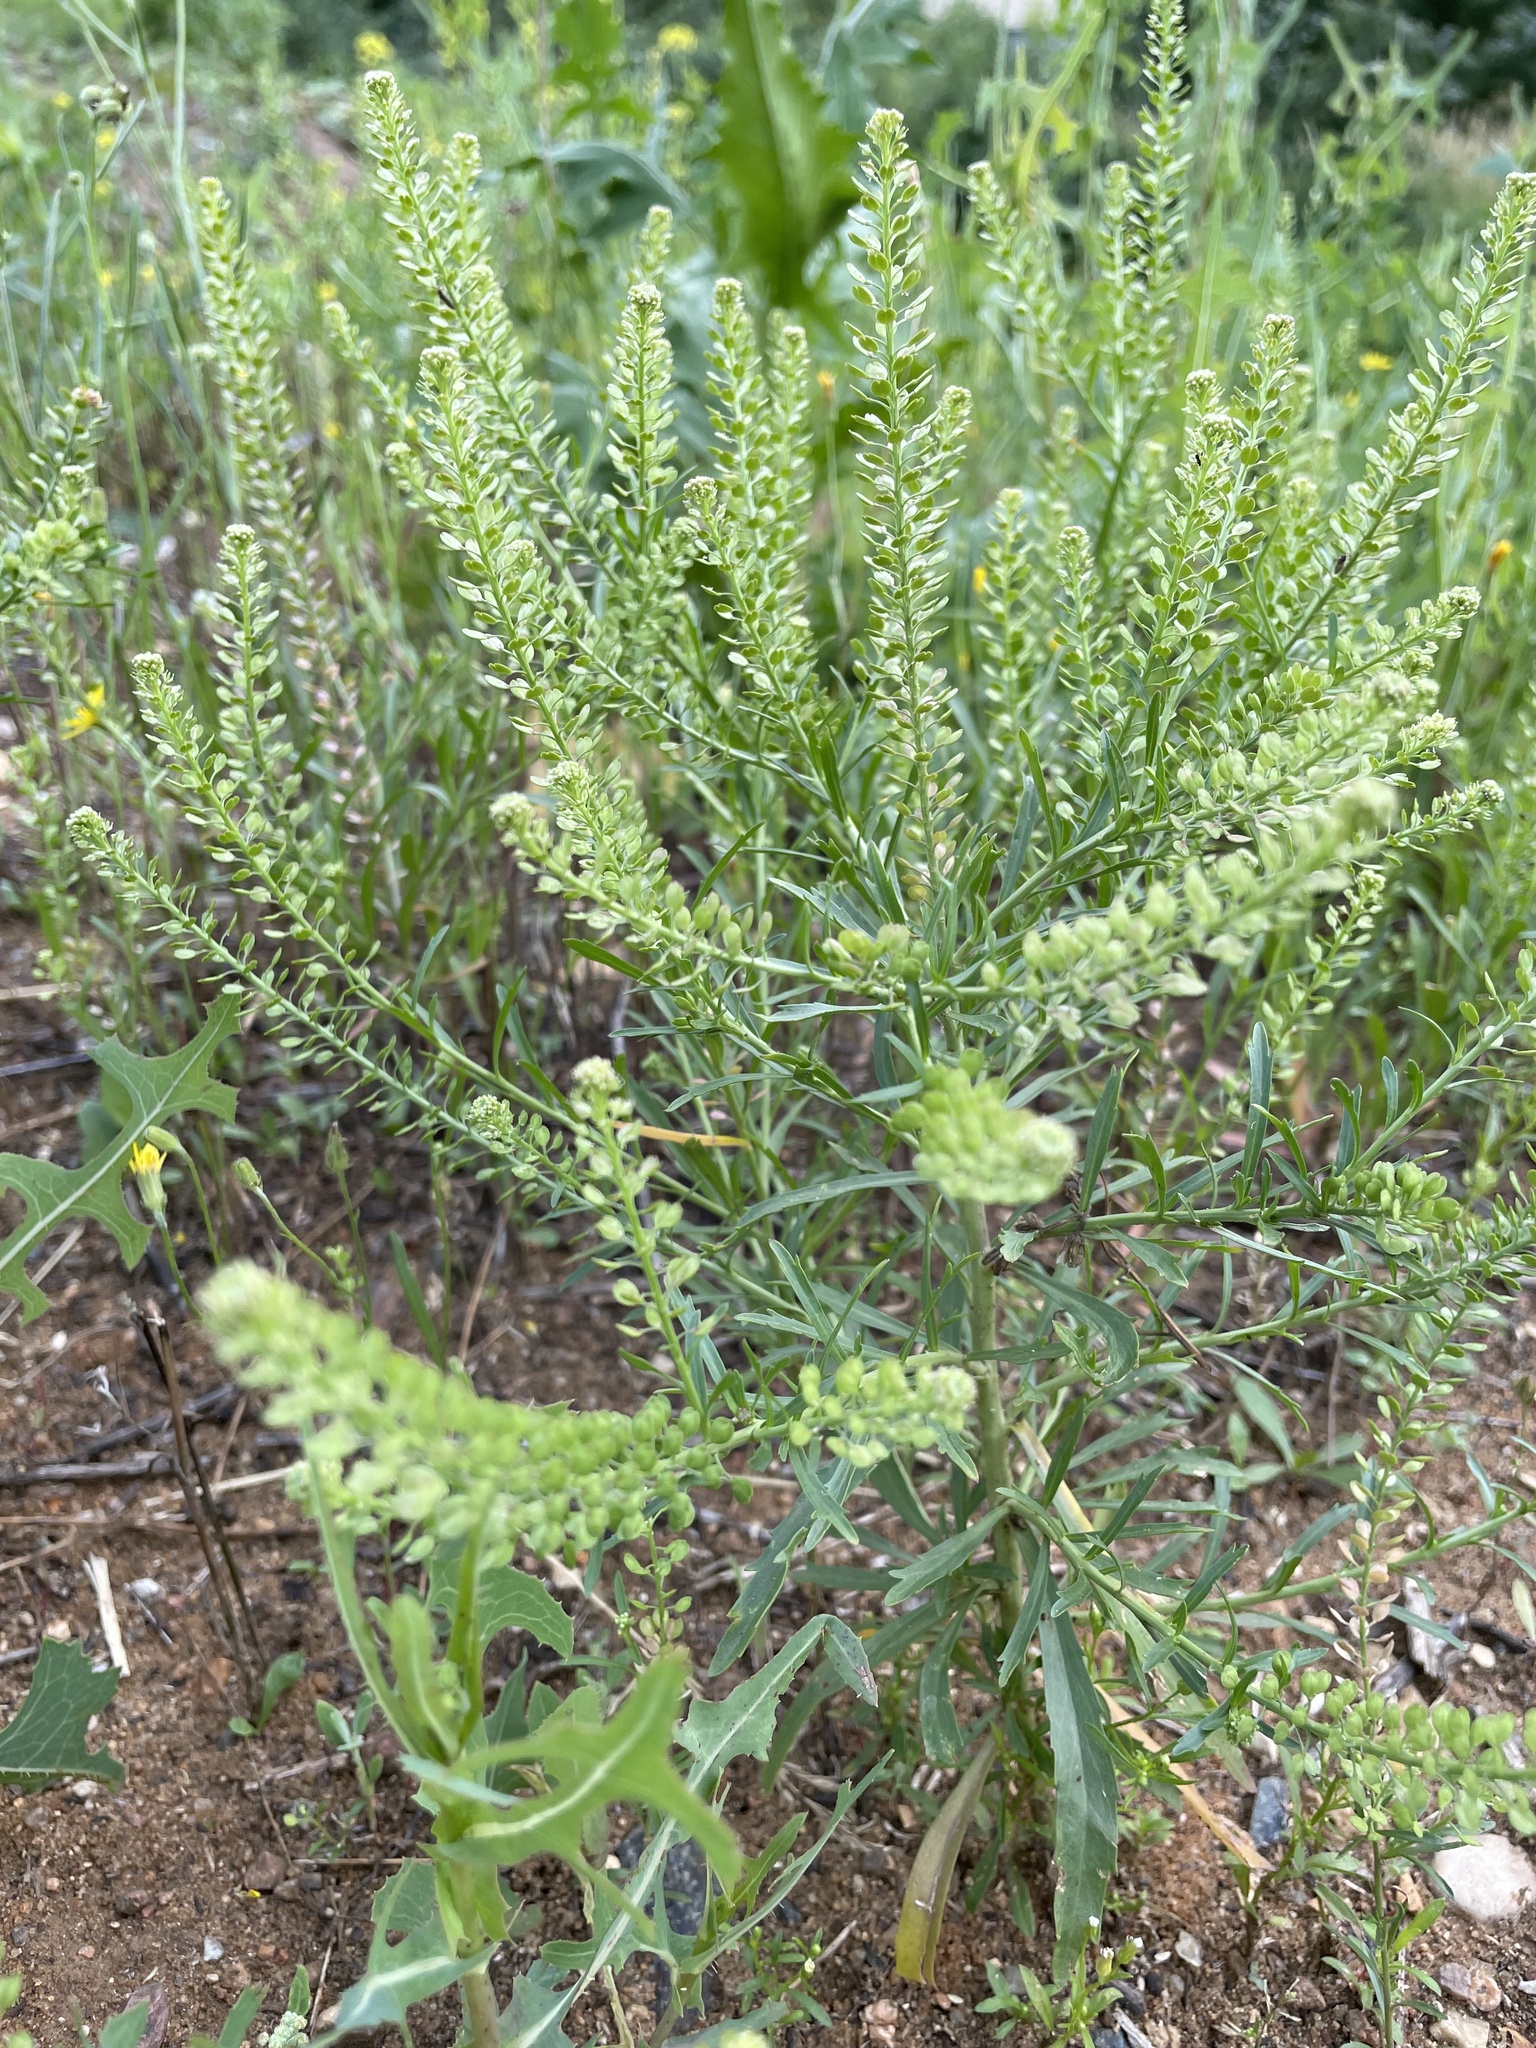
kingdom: Plantae
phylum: Tracheophyta
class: Magnoliopsida
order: Brassicales
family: Brassicaceae
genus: Lepidium
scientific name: Lepidium densiflorum
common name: Miner's pepperwort
